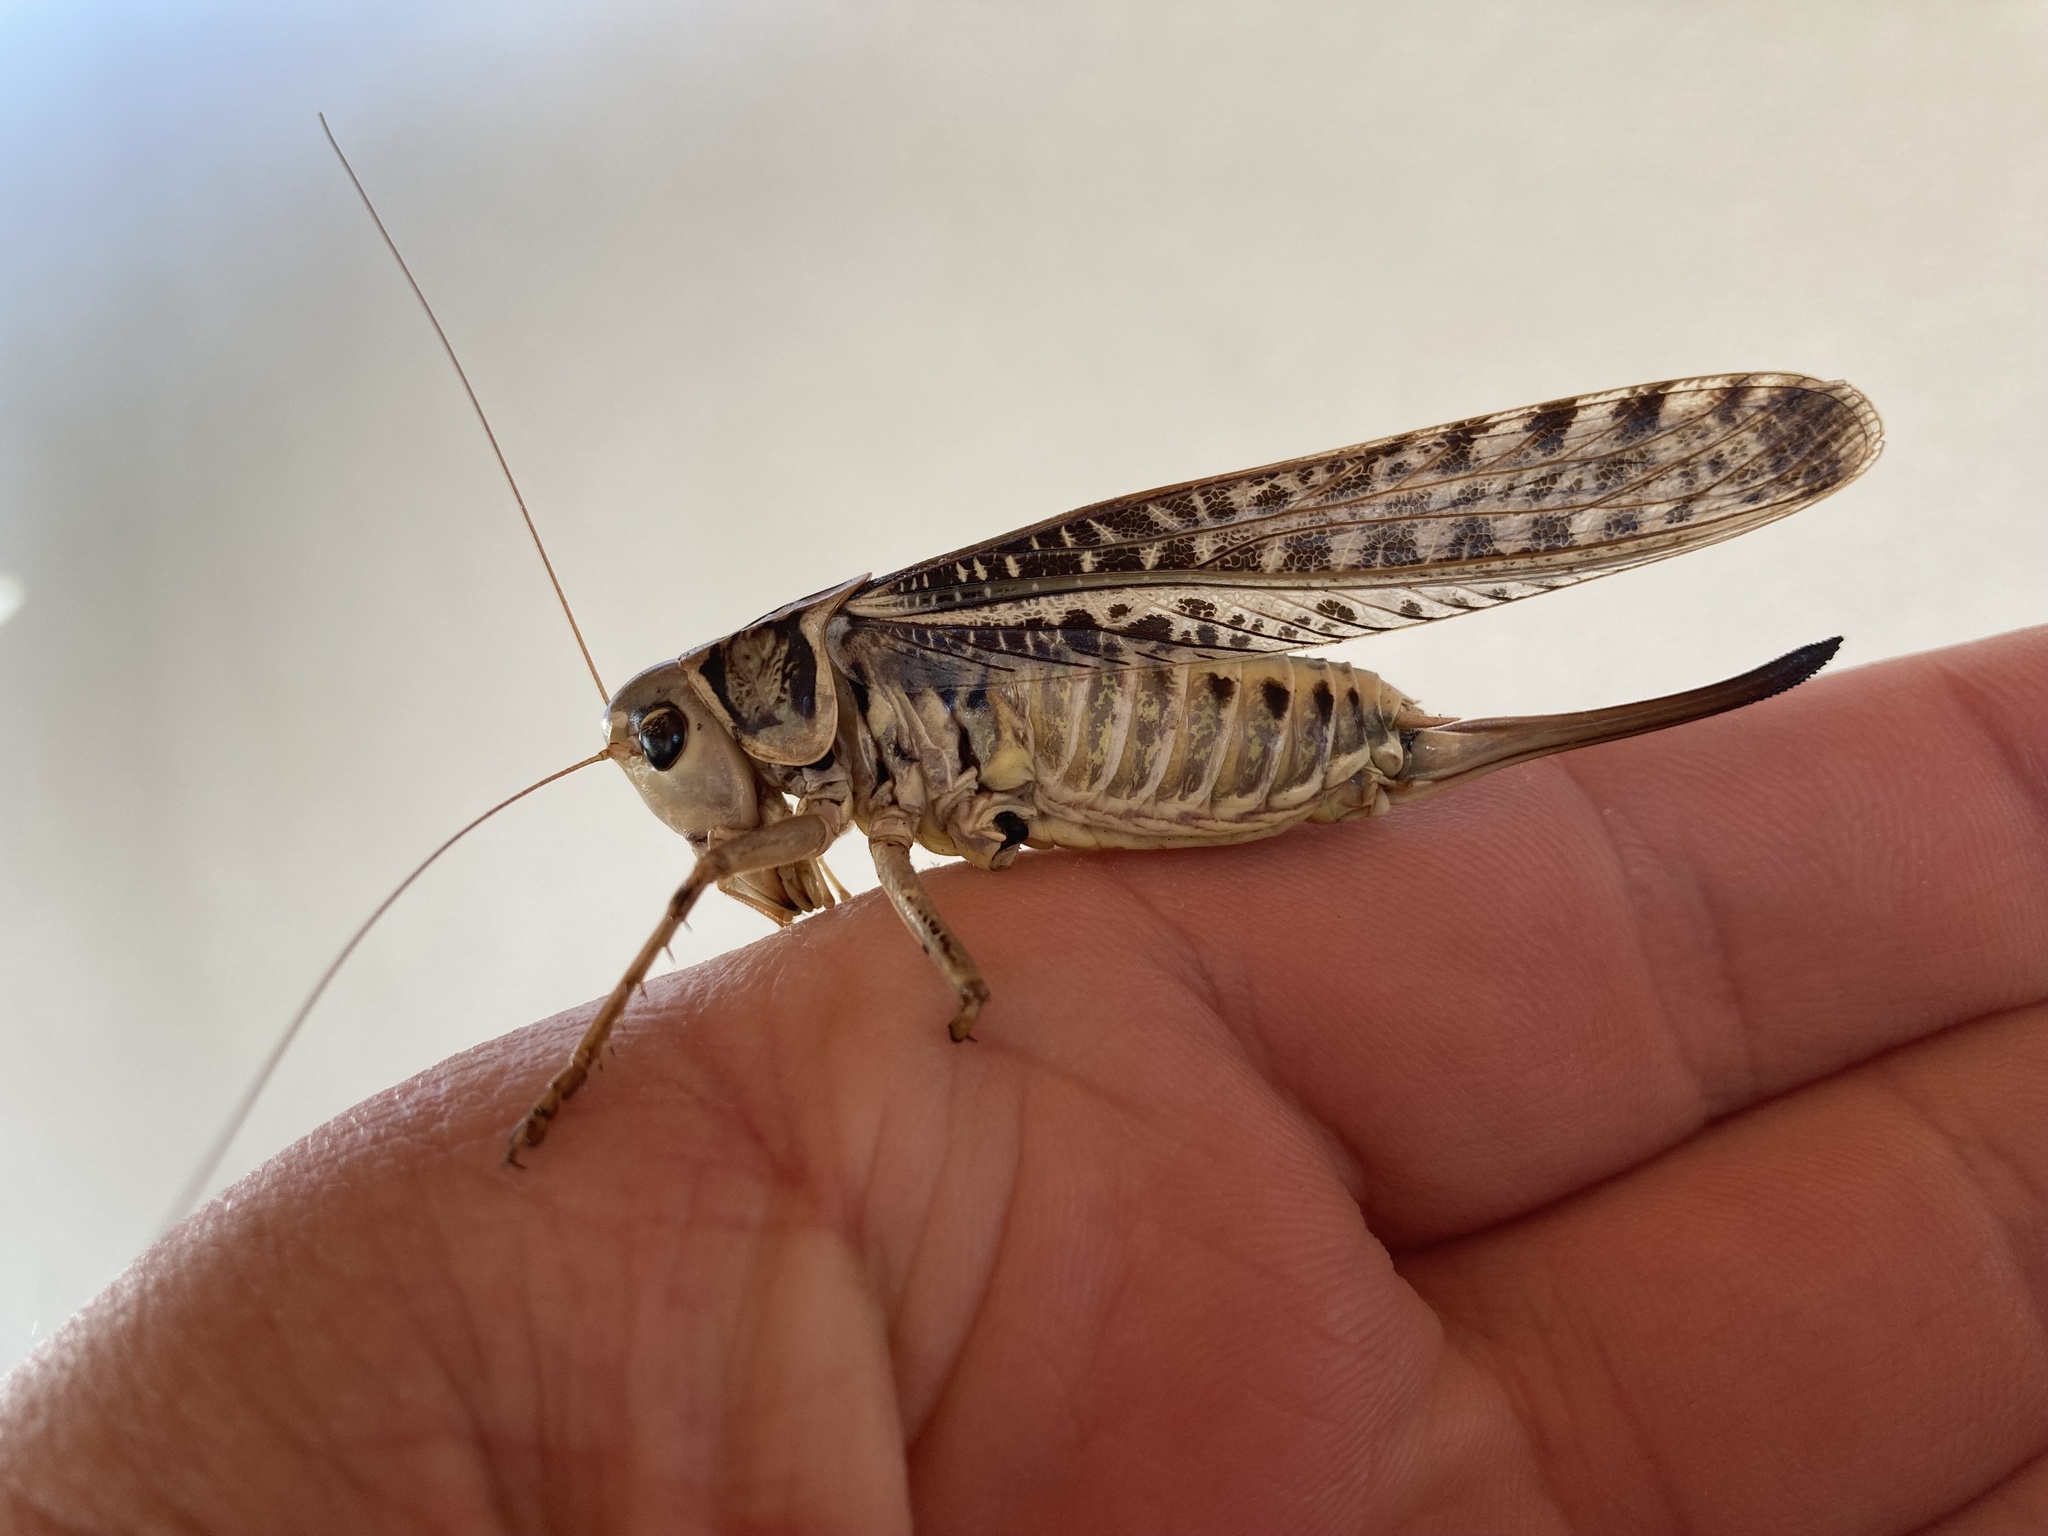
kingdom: Animalia
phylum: Arthropoda
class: Insecta
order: Orthoptera
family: Tettigoniidae
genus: Decticus
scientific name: Decticus albifrons
